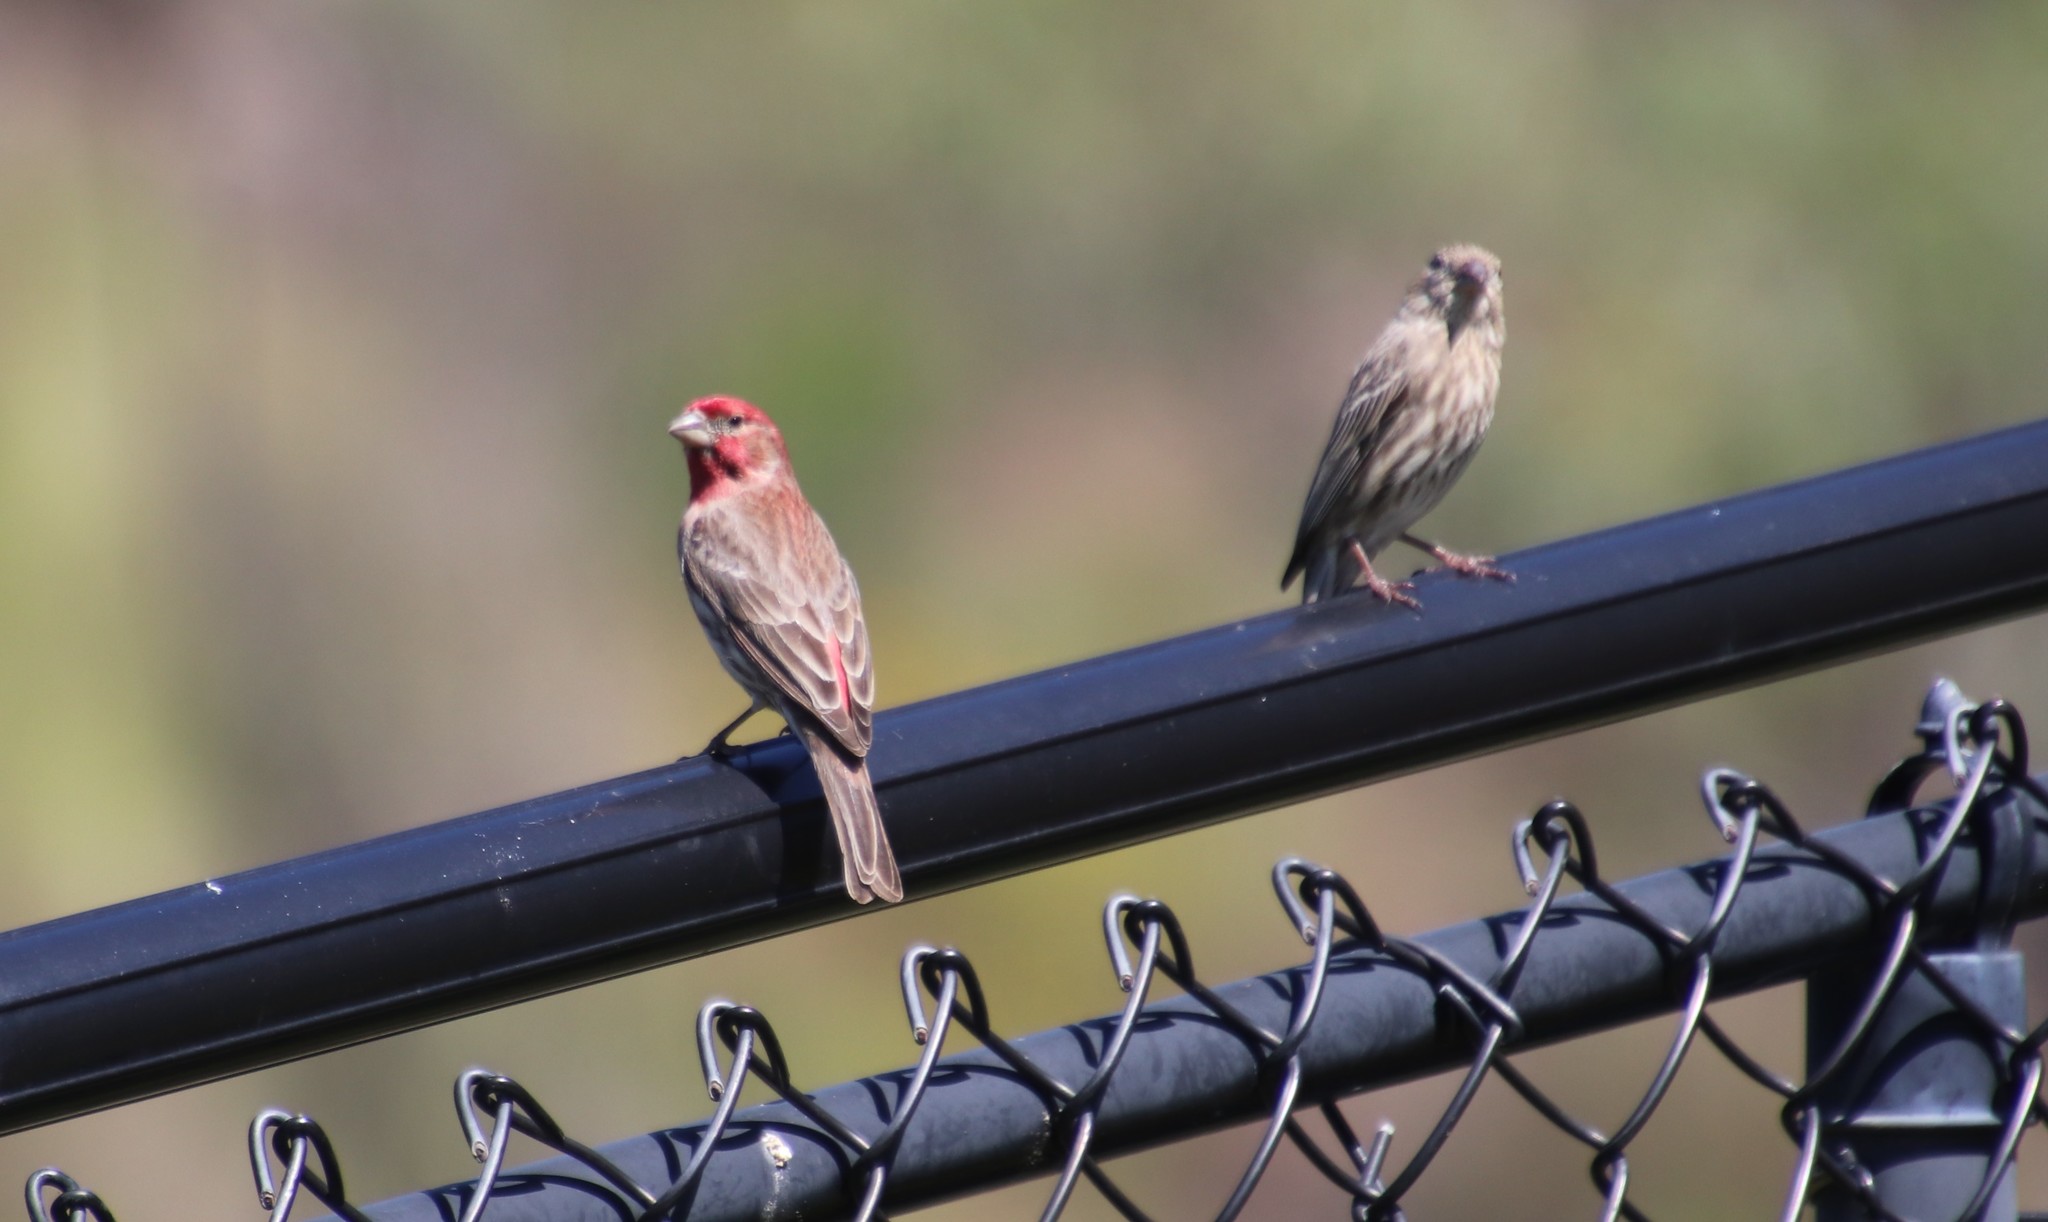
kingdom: Animalia
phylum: Chordata
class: Aves
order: Passeriformes
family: Fringillidae
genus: Haemorhous
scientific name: Haemorhous mexicanus
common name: House finch
